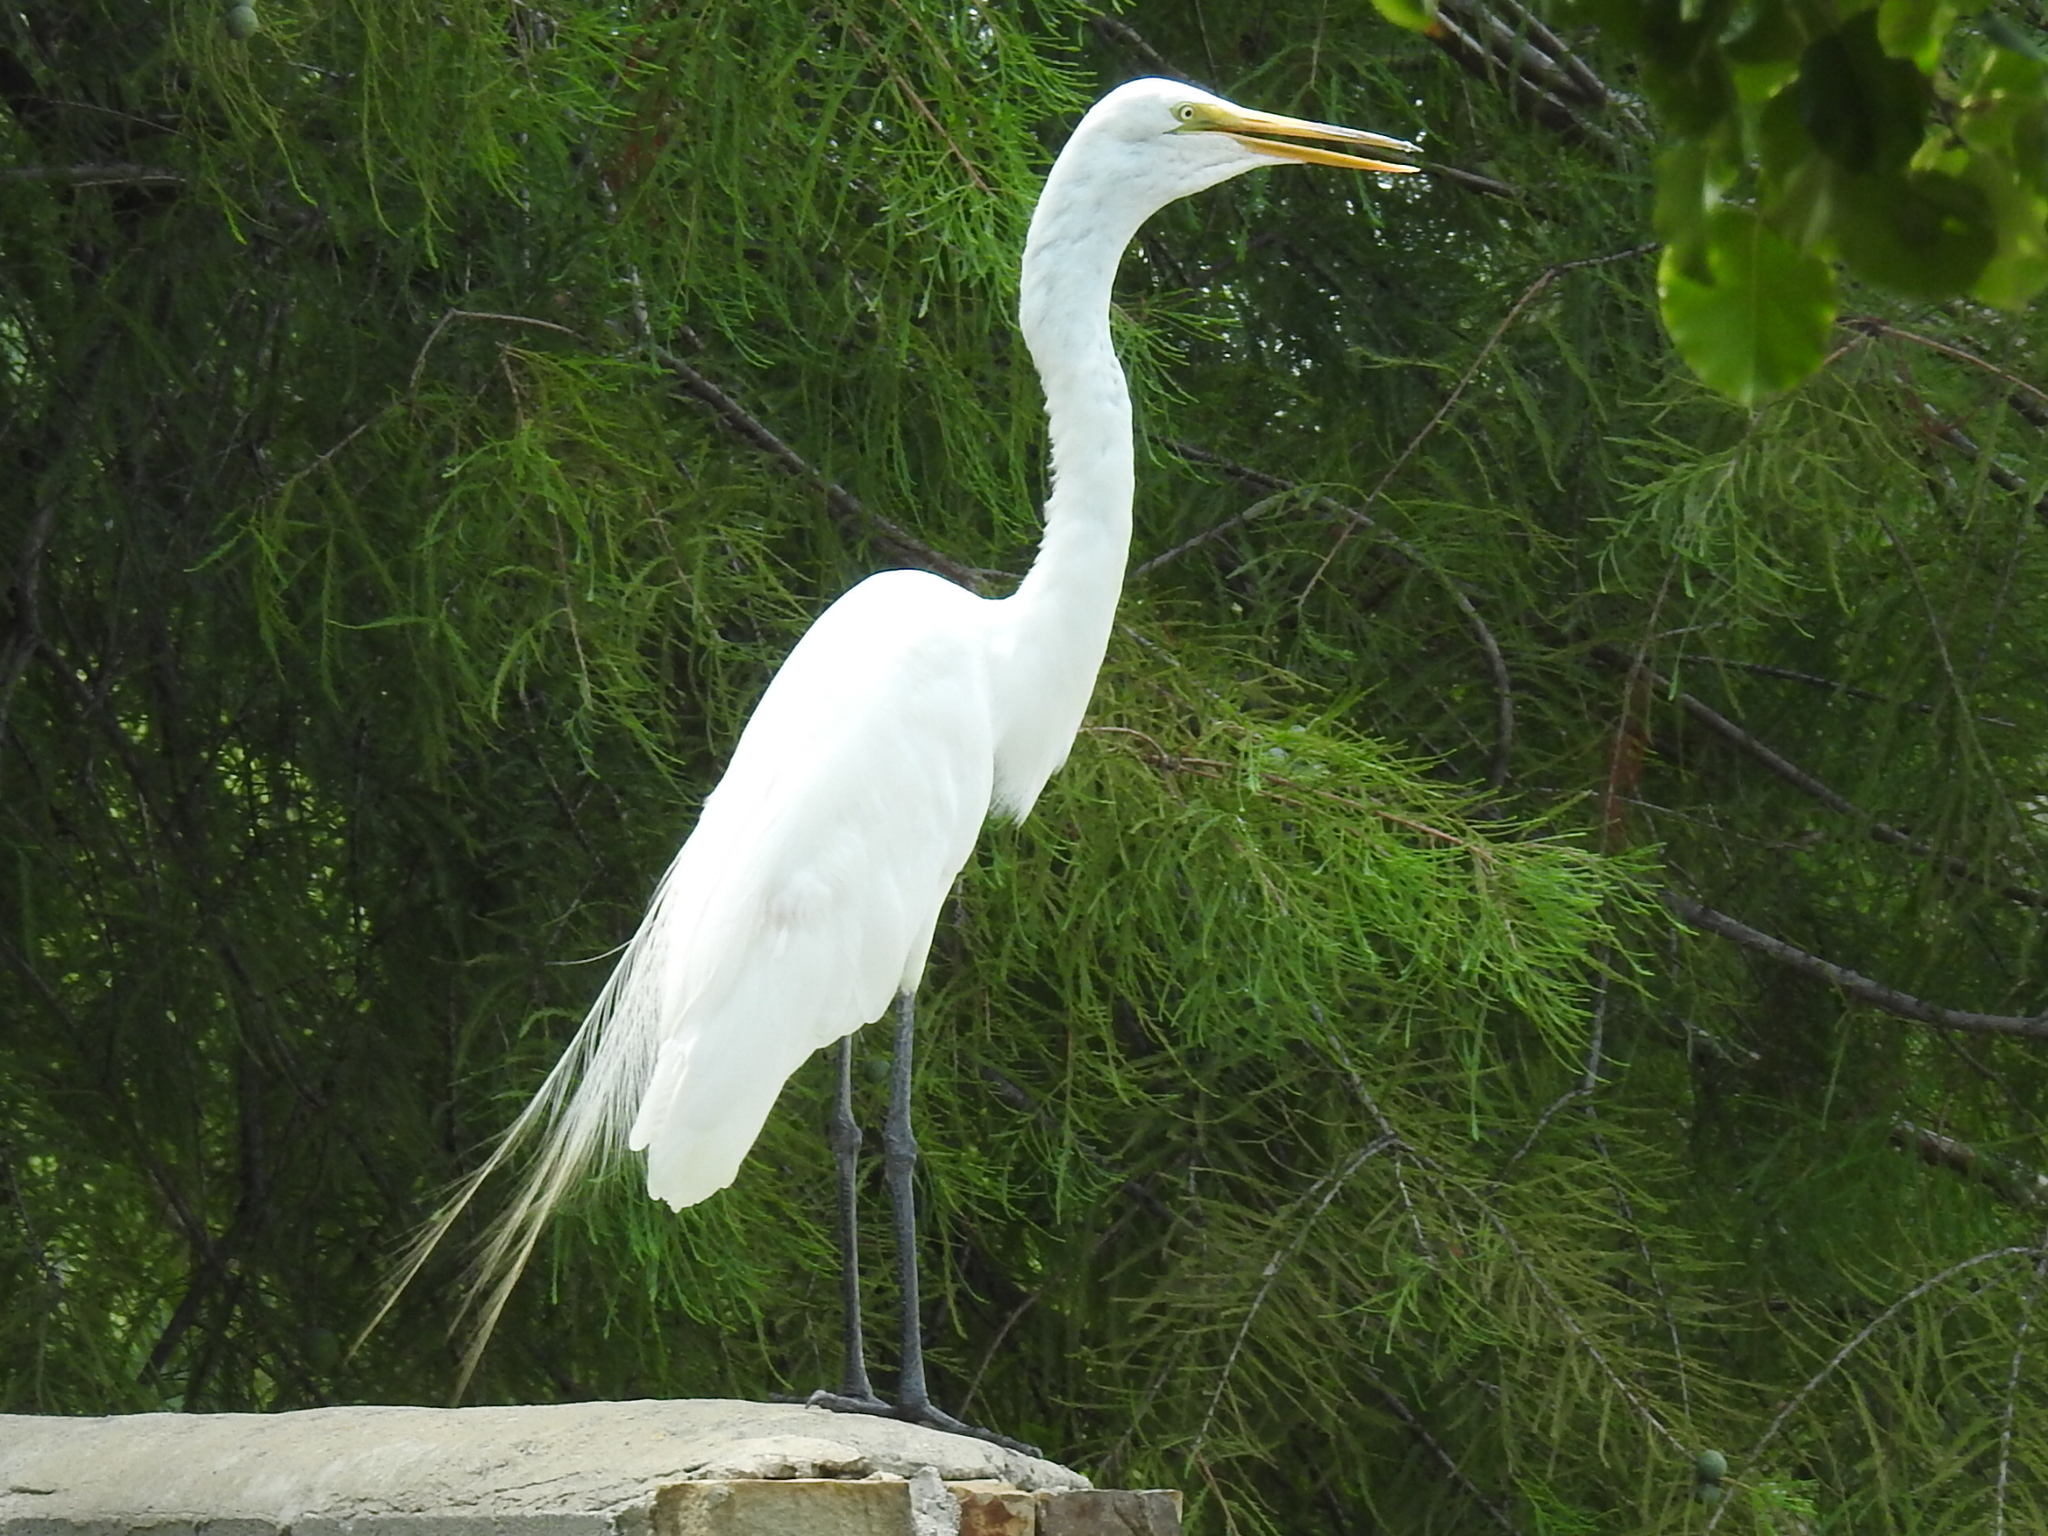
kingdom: Animalia
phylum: Chordata
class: Aves
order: Pelecaniformes
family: Ardeidae
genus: Ardea
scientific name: Ardea alba
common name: Great egret
